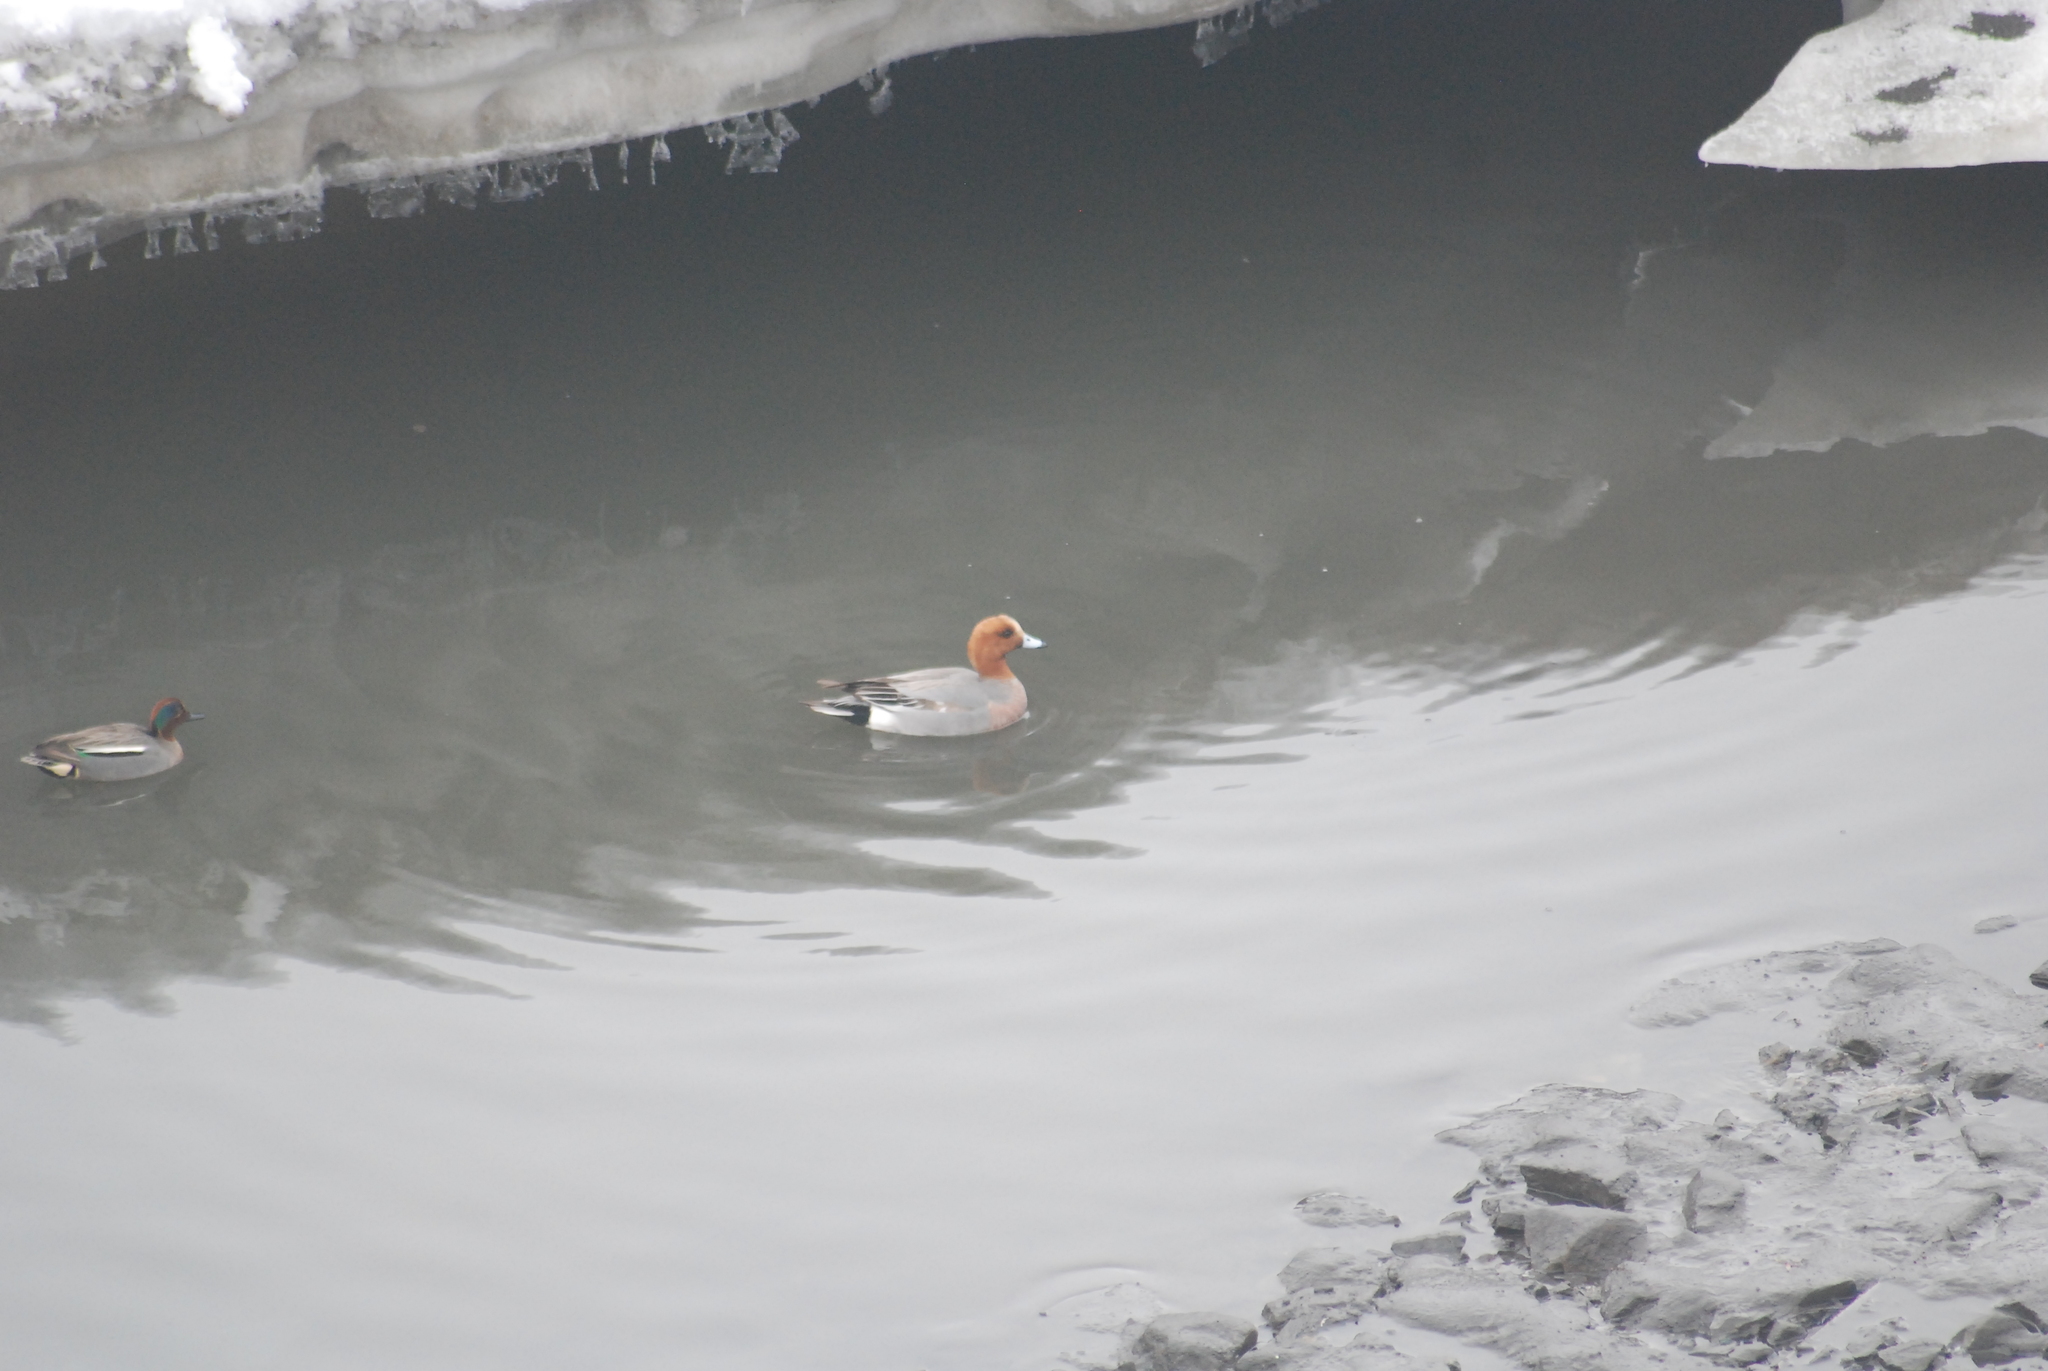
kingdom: Animalia
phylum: Chordata
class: Aves
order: Anseriformes
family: Anatidae
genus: Mareca
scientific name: Mareca penelope
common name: Eurasian wigeon
